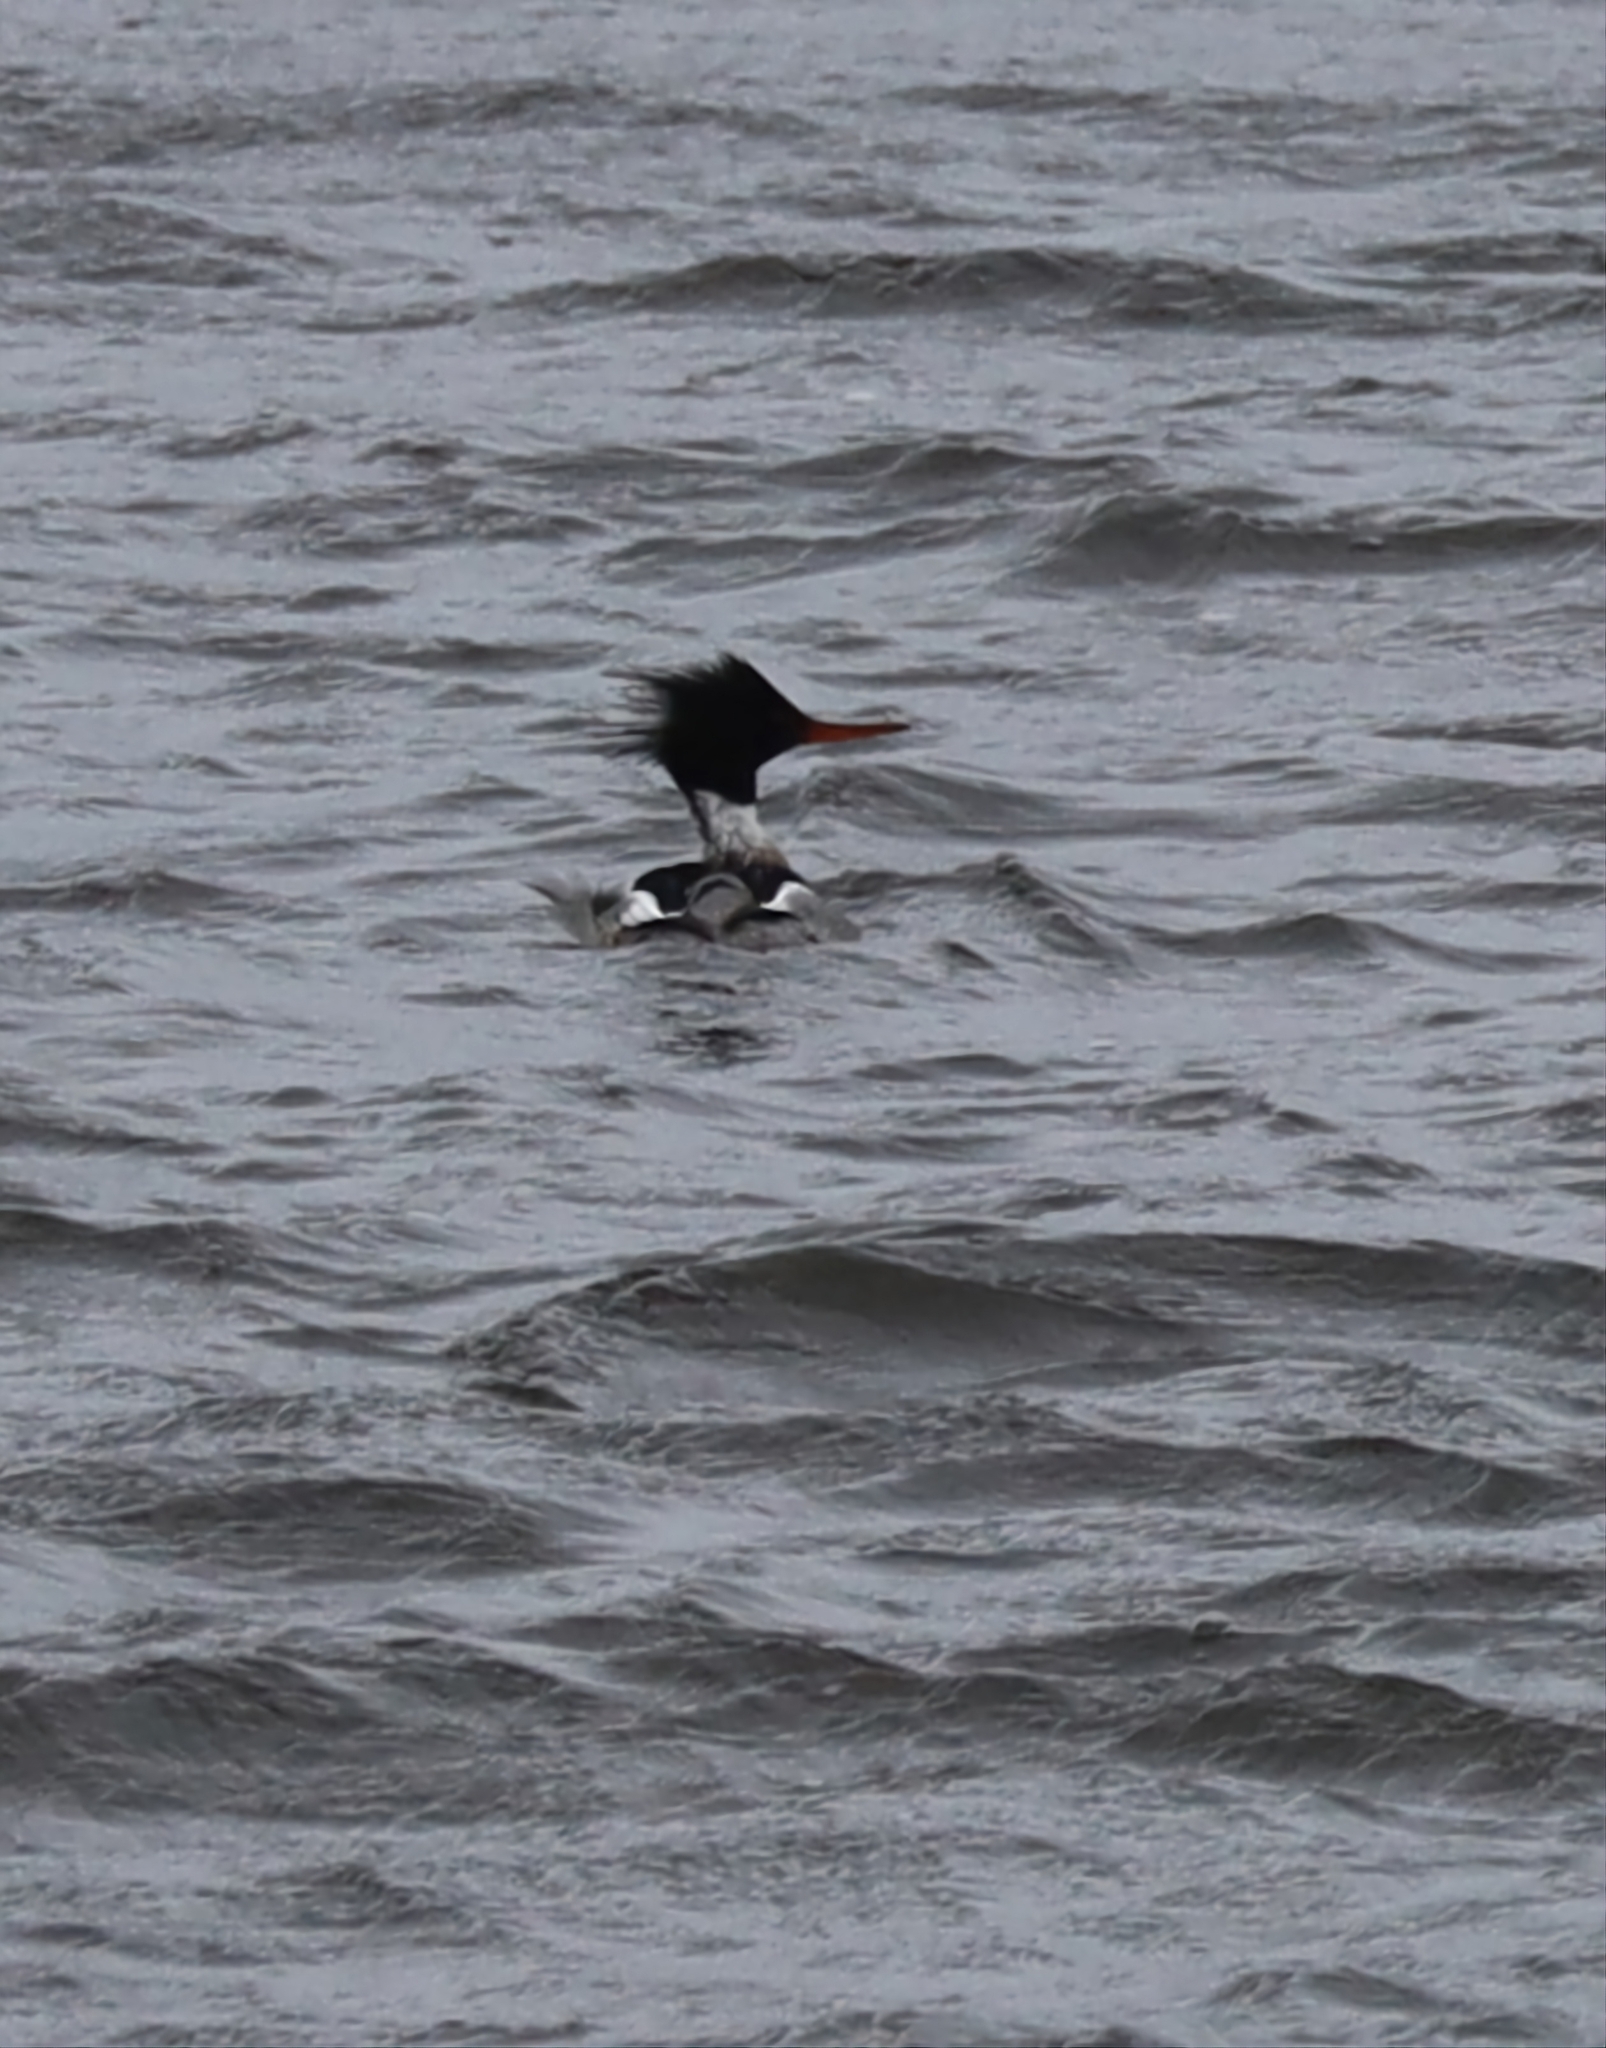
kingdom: Animalia
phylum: Chordata
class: Aves
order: Anseriformes
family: Anatidae
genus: Mergus
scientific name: Mergus serrator
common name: Red-breasted merganser
